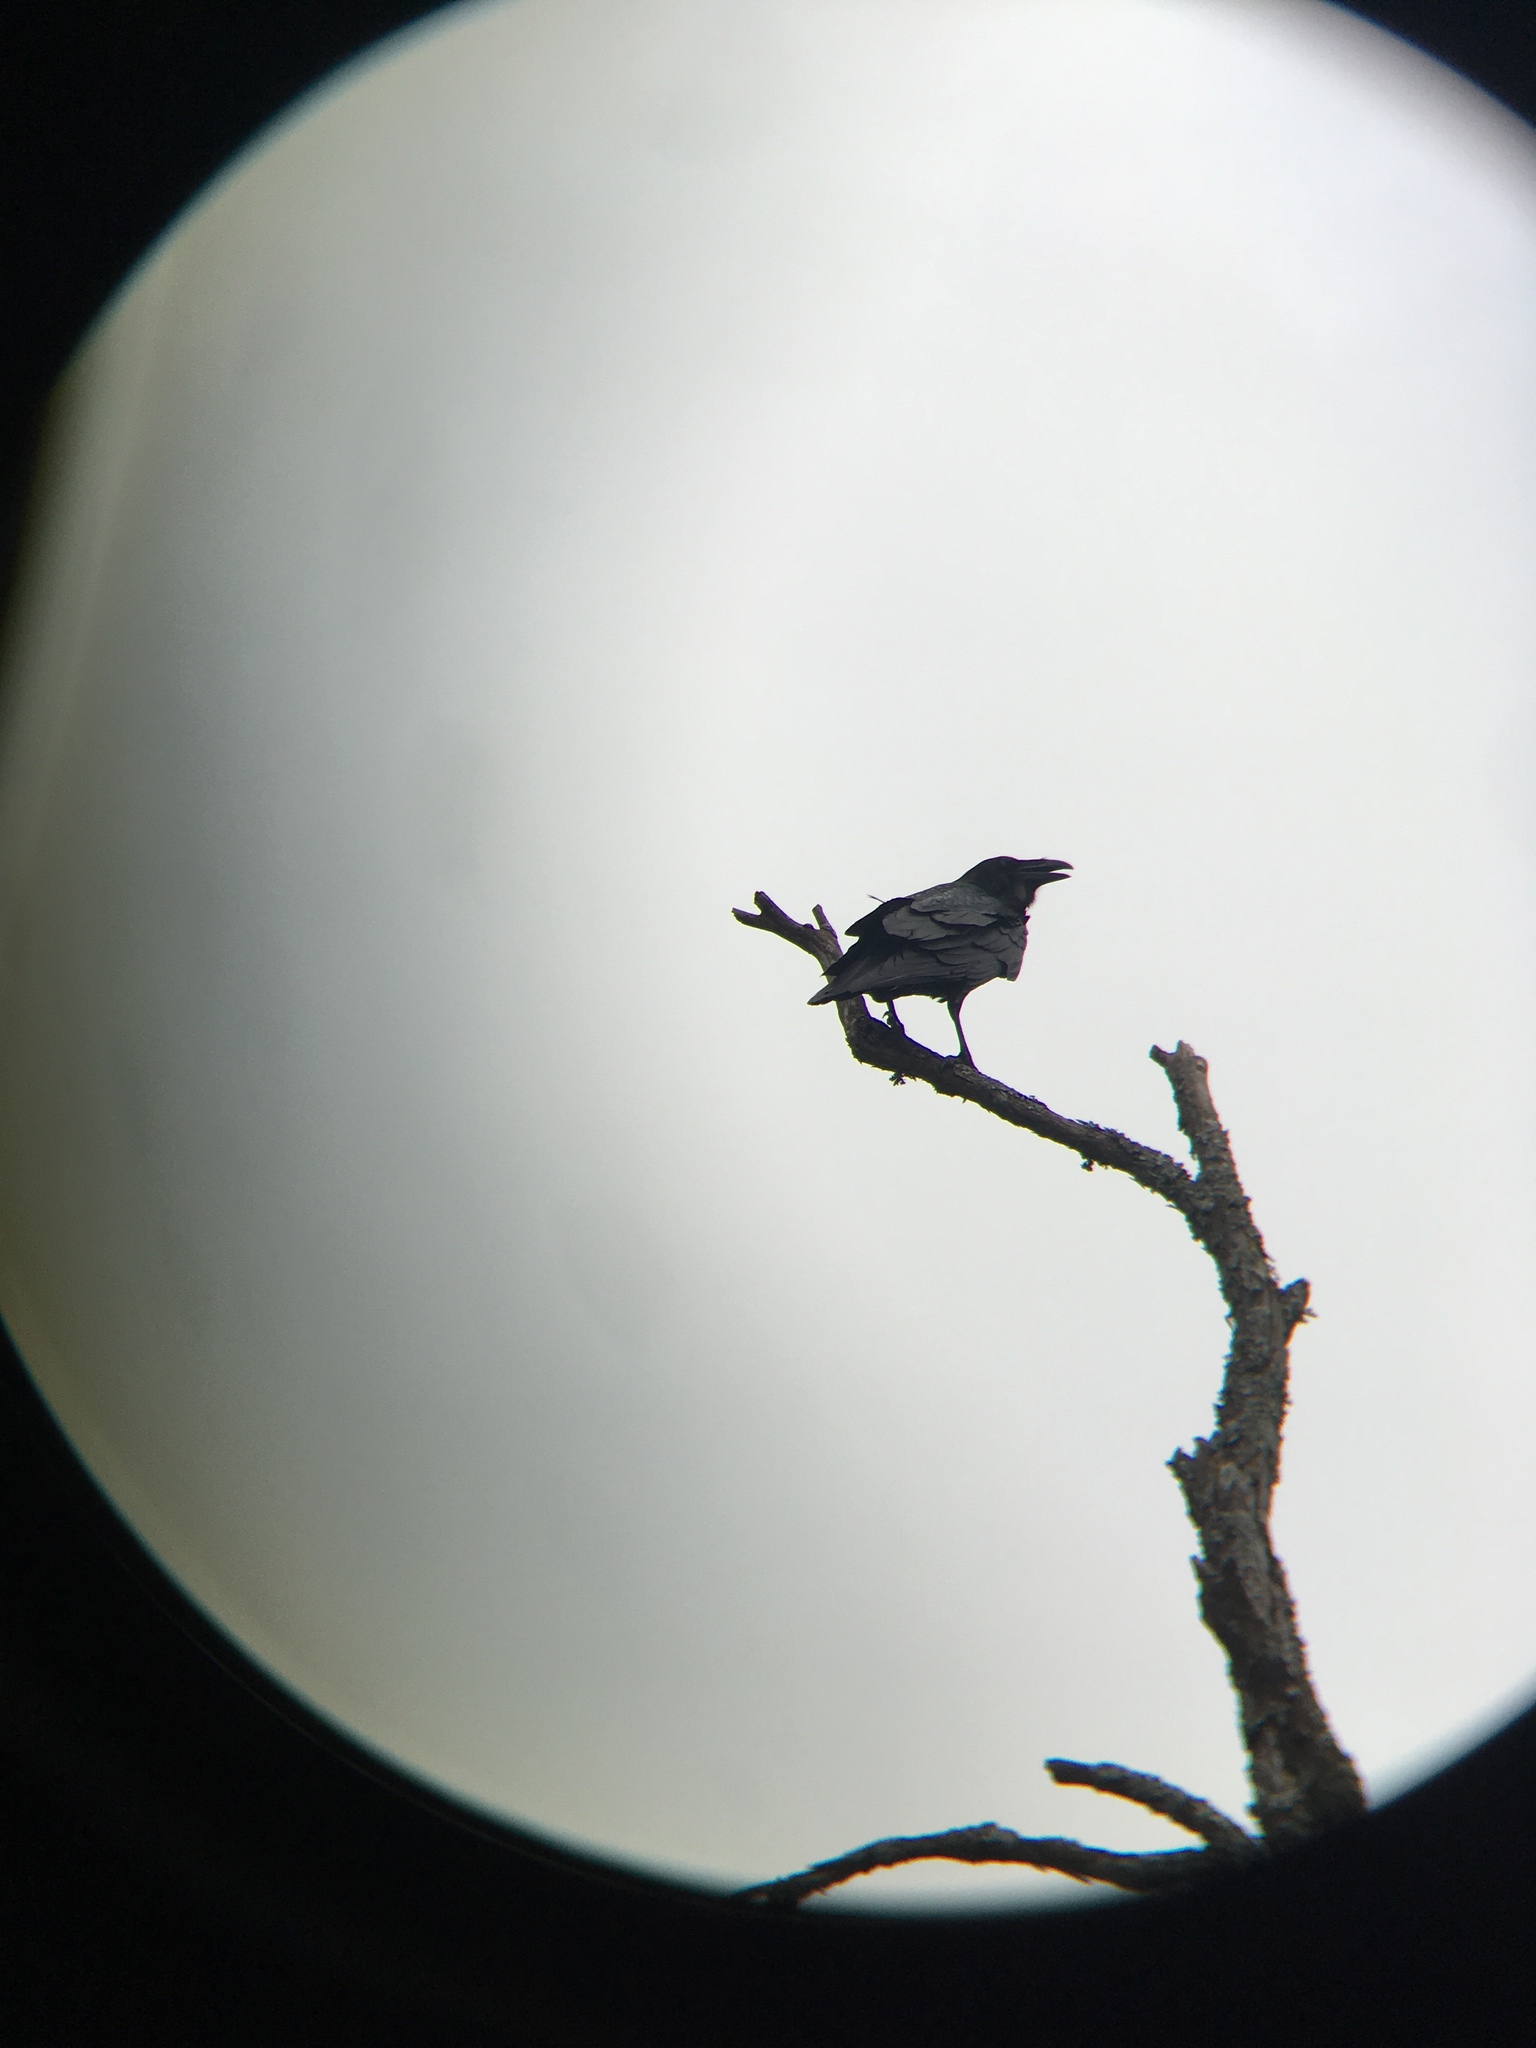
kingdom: Animalia
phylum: Chordata
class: Aves
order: Passeriformes
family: Corvidae
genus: Corvus
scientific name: Corvus corax
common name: Common raven
